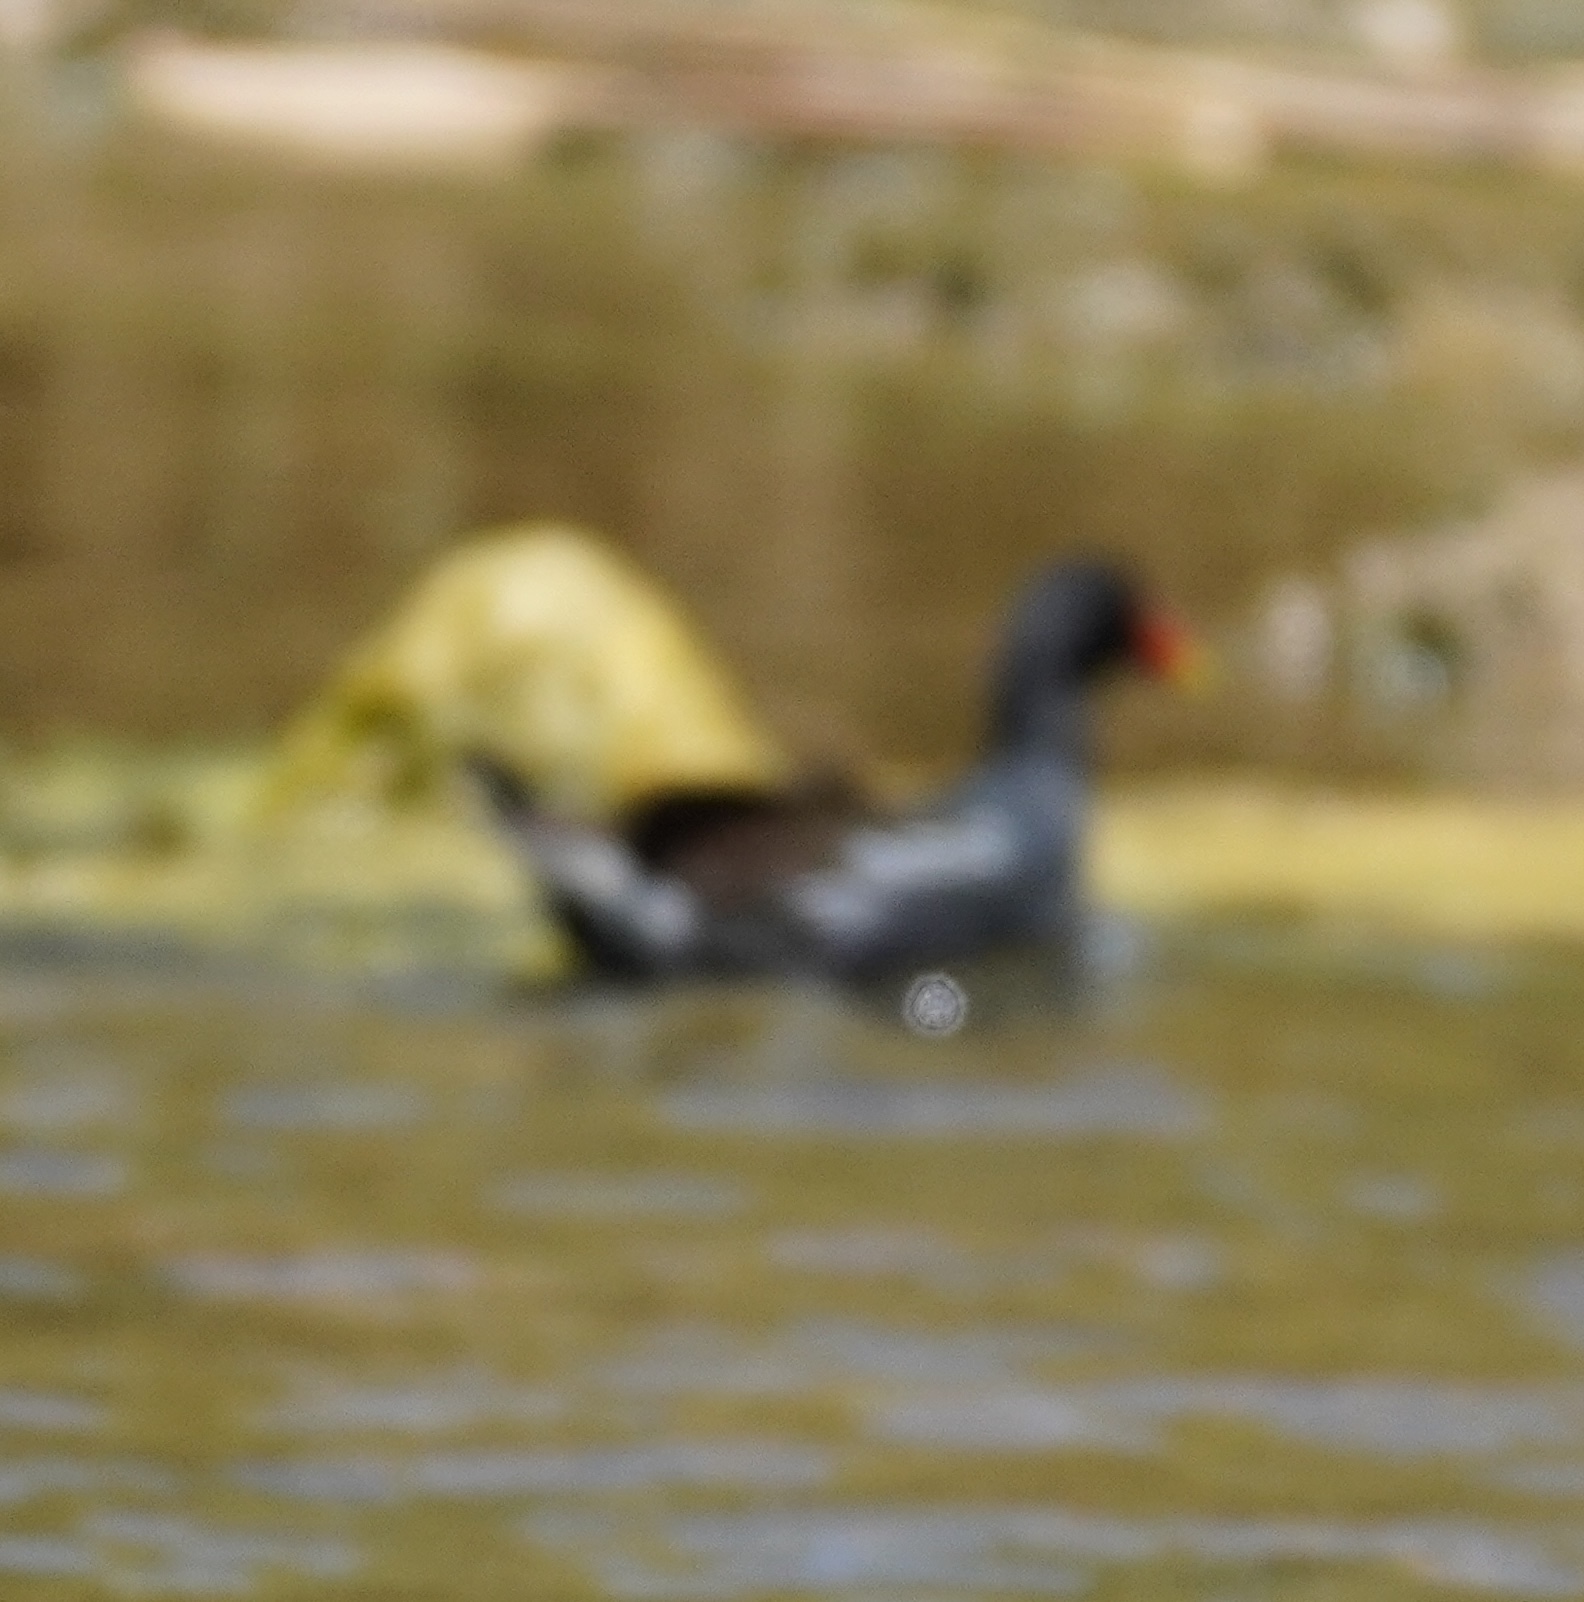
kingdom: Animalia
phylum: Chordata
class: Aves
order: Gruiformes
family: Rallidae
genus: Gallinula
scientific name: Gallinula chloropus
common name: Common moorhen
